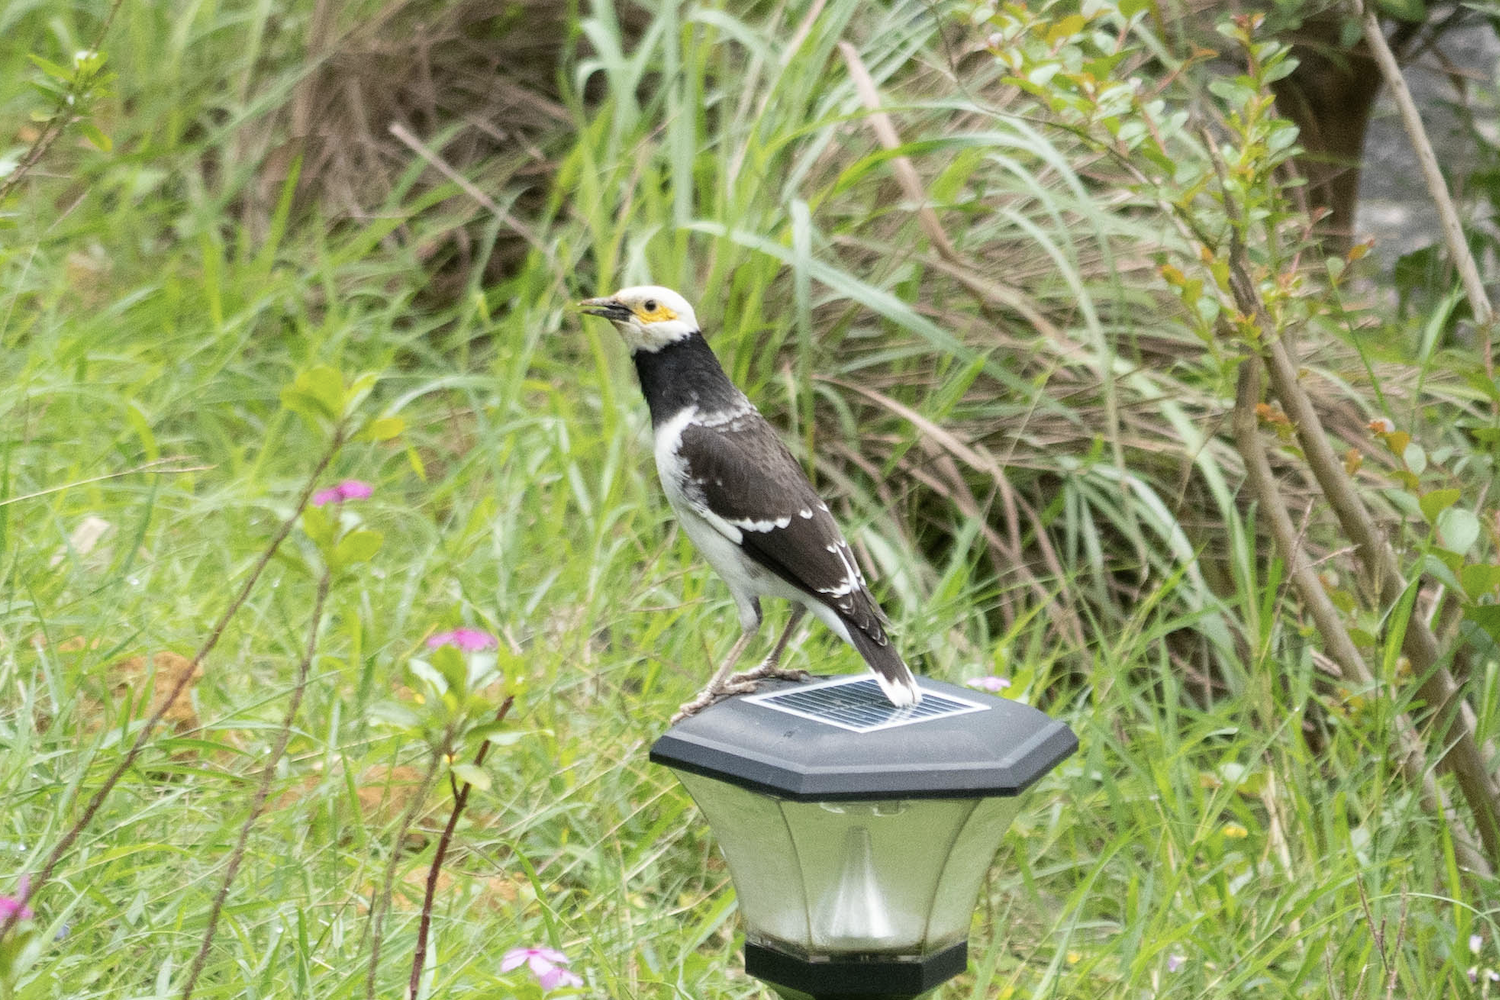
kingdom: Animalia
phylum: Chordata
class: Aves
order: Passeriformes
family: Sturnidae
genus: Gracupica
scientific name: Gracupica nigricollis
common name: Black-collared starling
